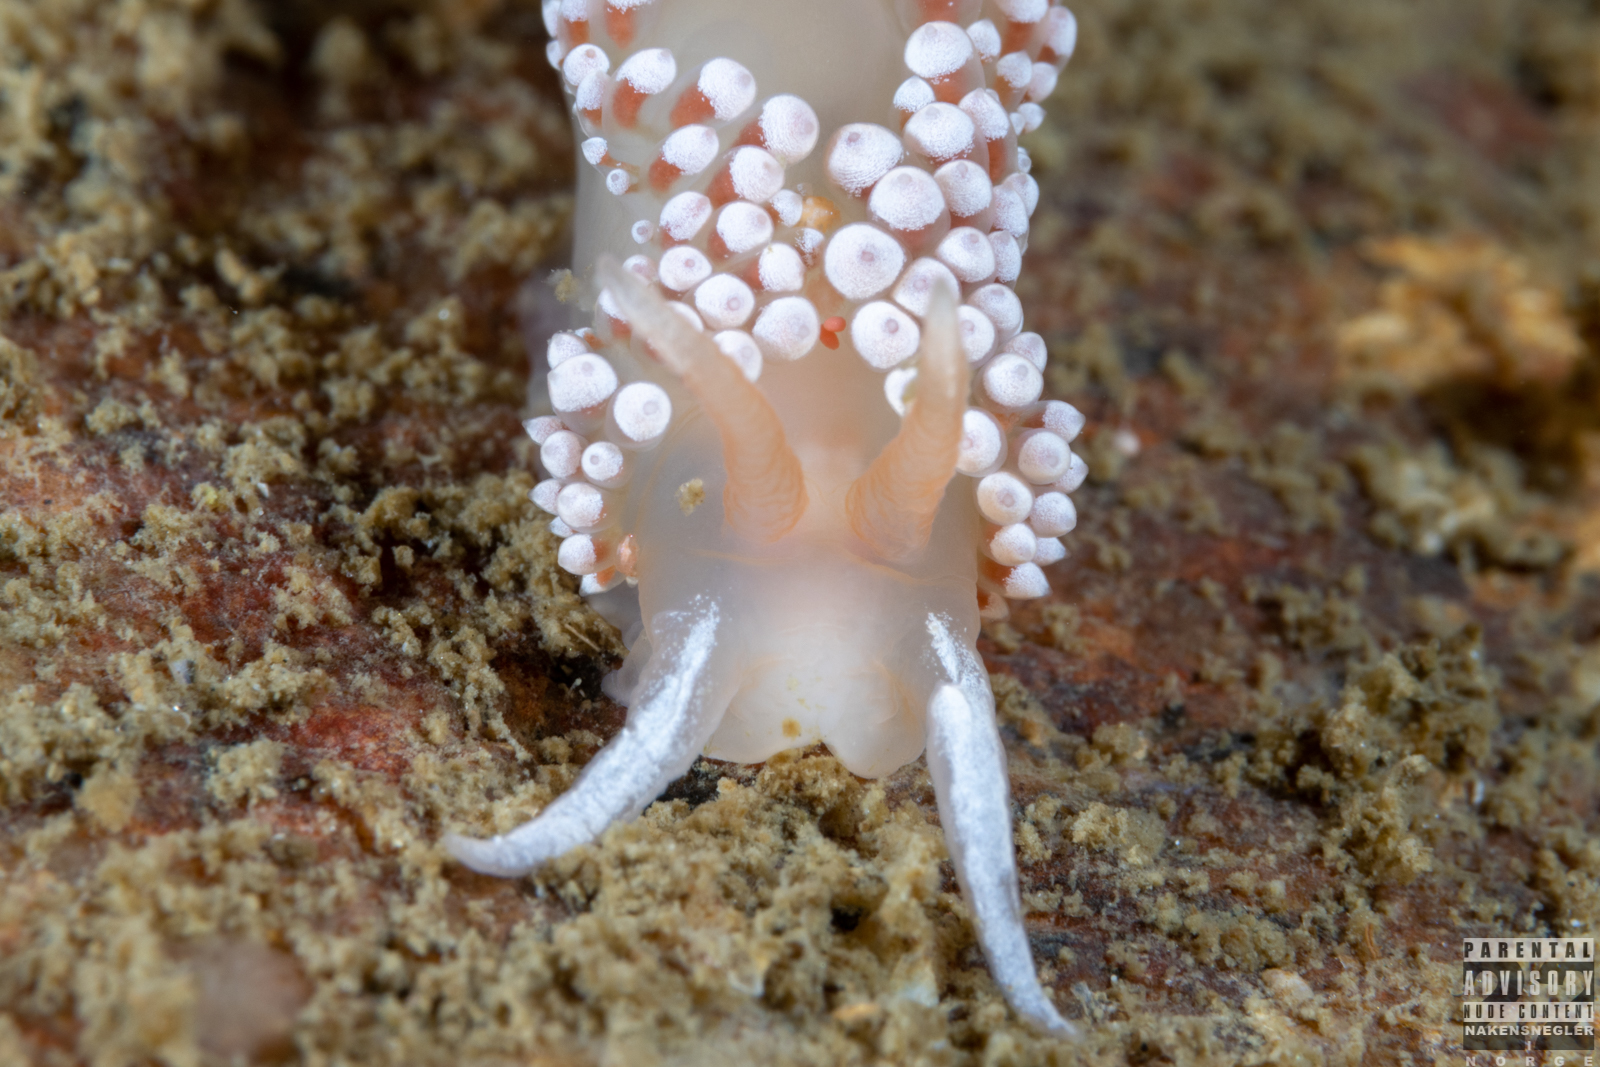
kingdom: Animalia
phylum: Mollusca
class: Gastropoda
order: Nudibranchia
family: Coryphellidae
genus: Coryphella
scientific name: Coryphella verrucosa
